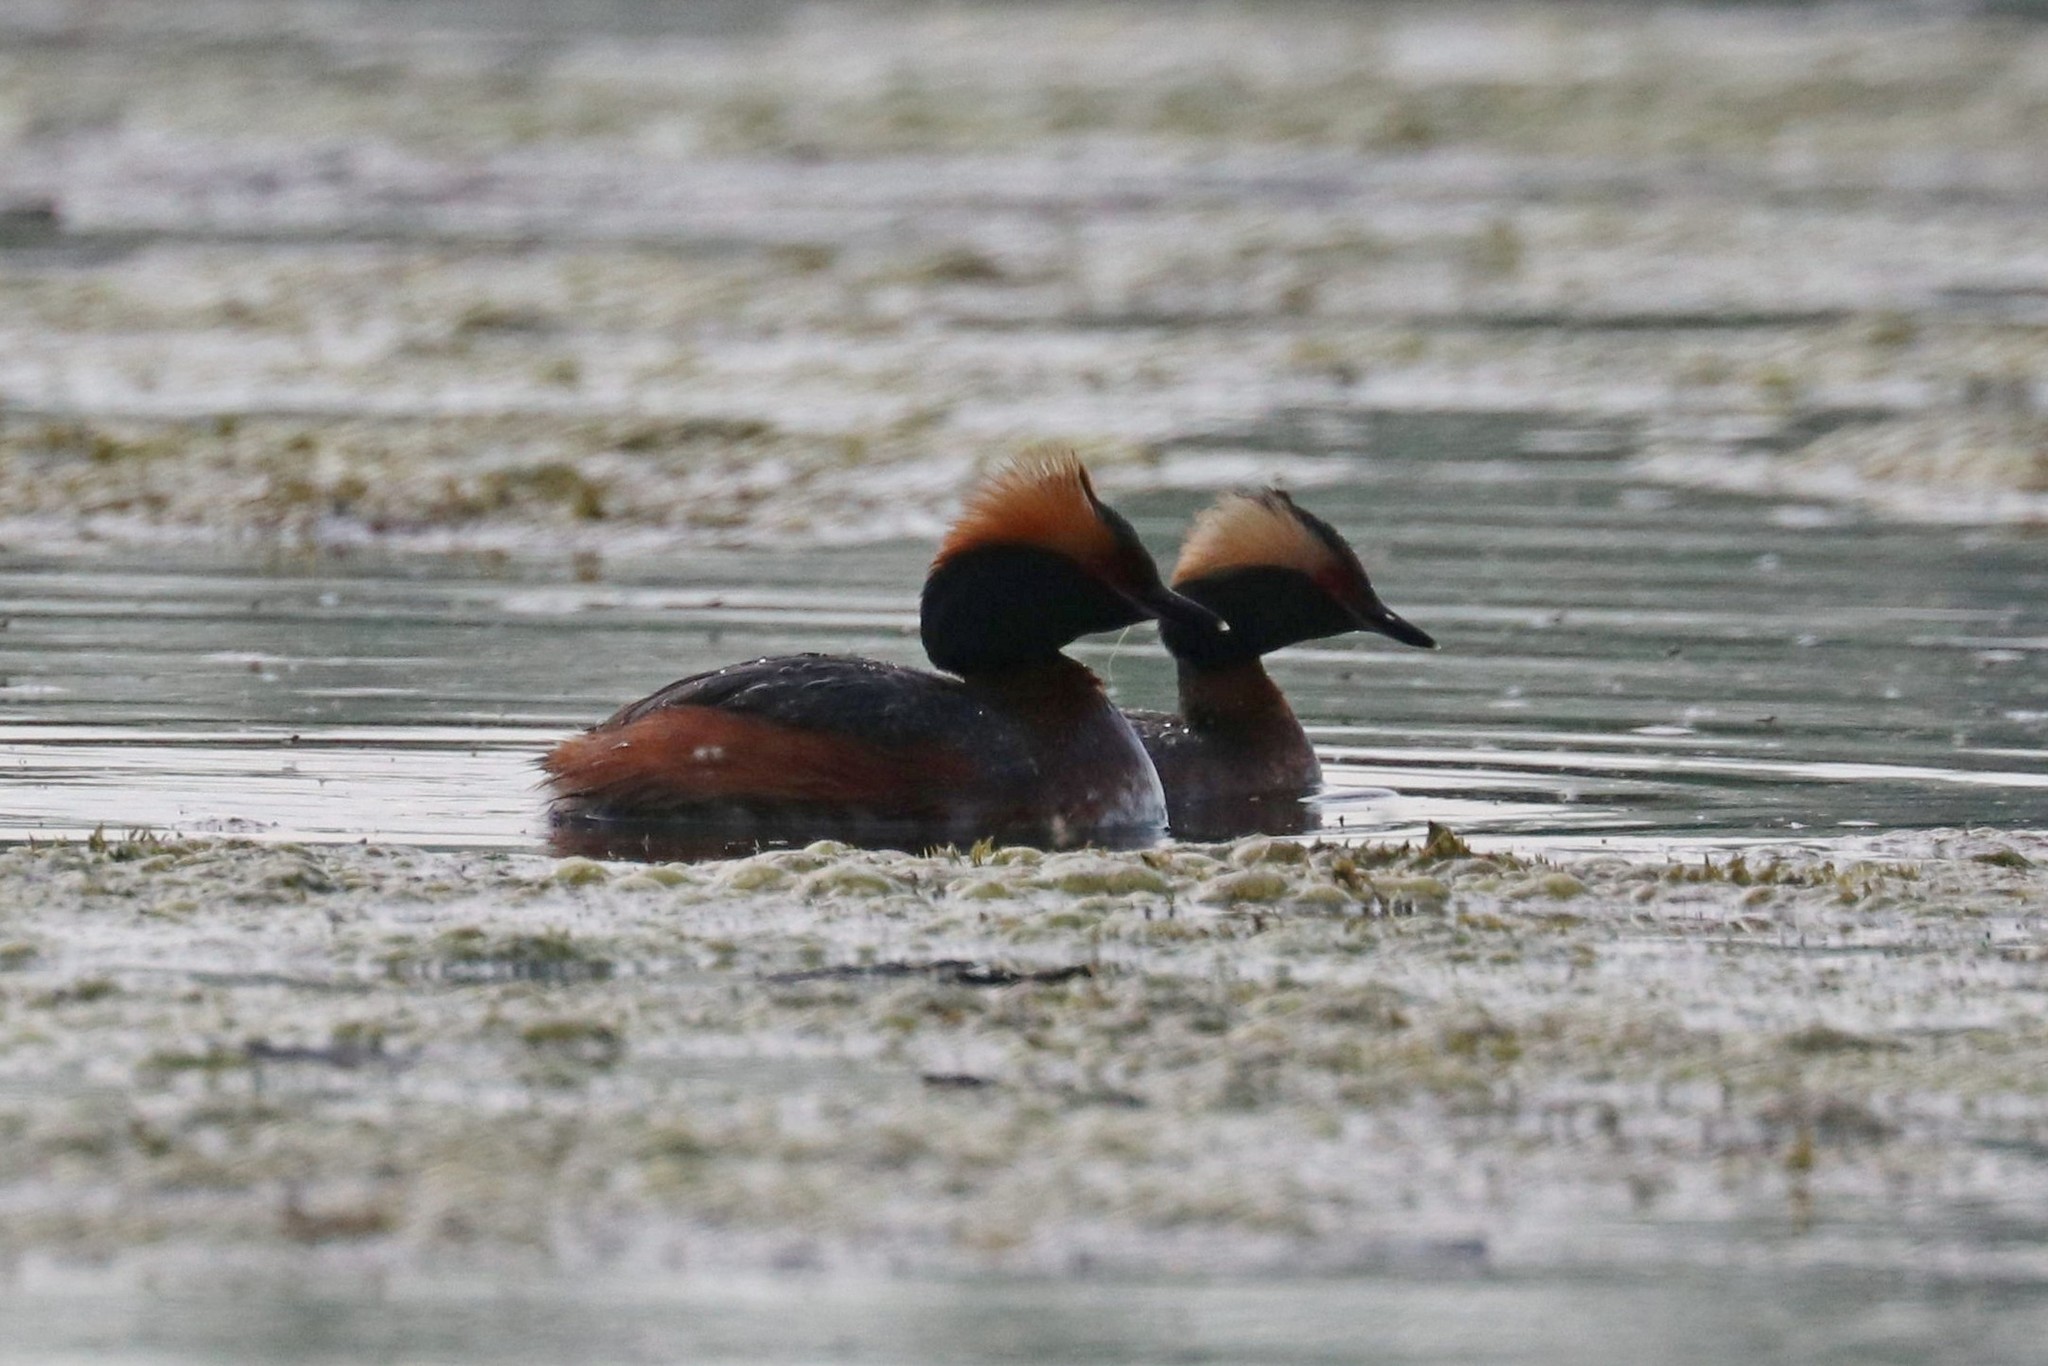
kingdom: Animalia
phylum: Chordata
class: Aves
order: Podicipediformes
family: Podicipedidae
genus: Podiceps
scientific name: Podiceps auritus
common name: Horned grebe
